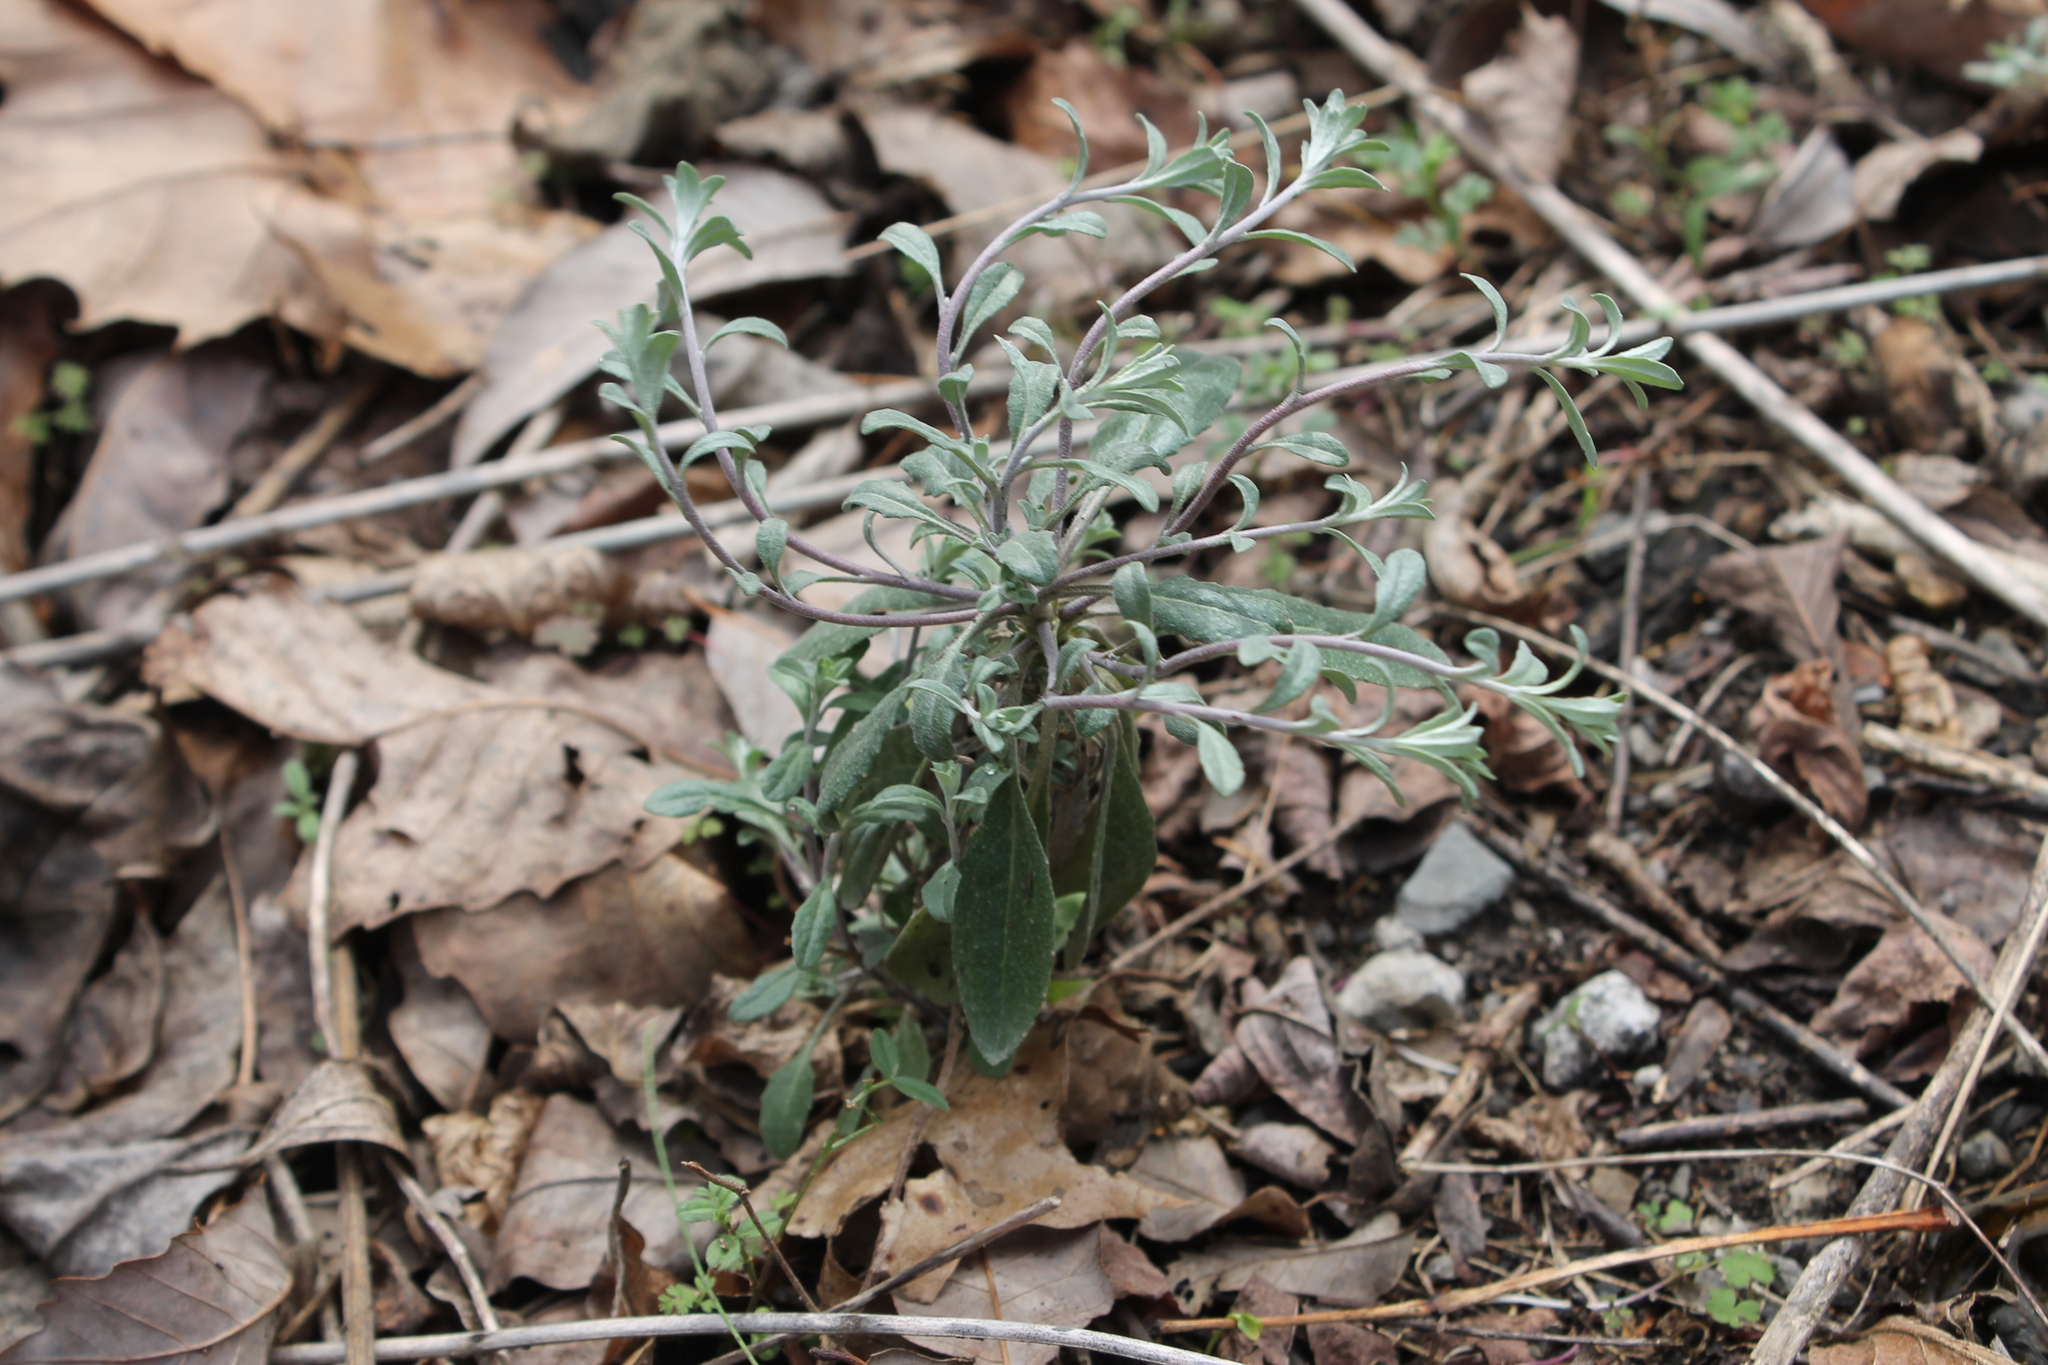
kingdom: Plantae
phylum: Tracheophyta
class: Magnoliopsida
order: Brassicales
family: Brassicaceae
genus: Physaria
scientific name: Physaria globosa
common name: Globe bladderpod
